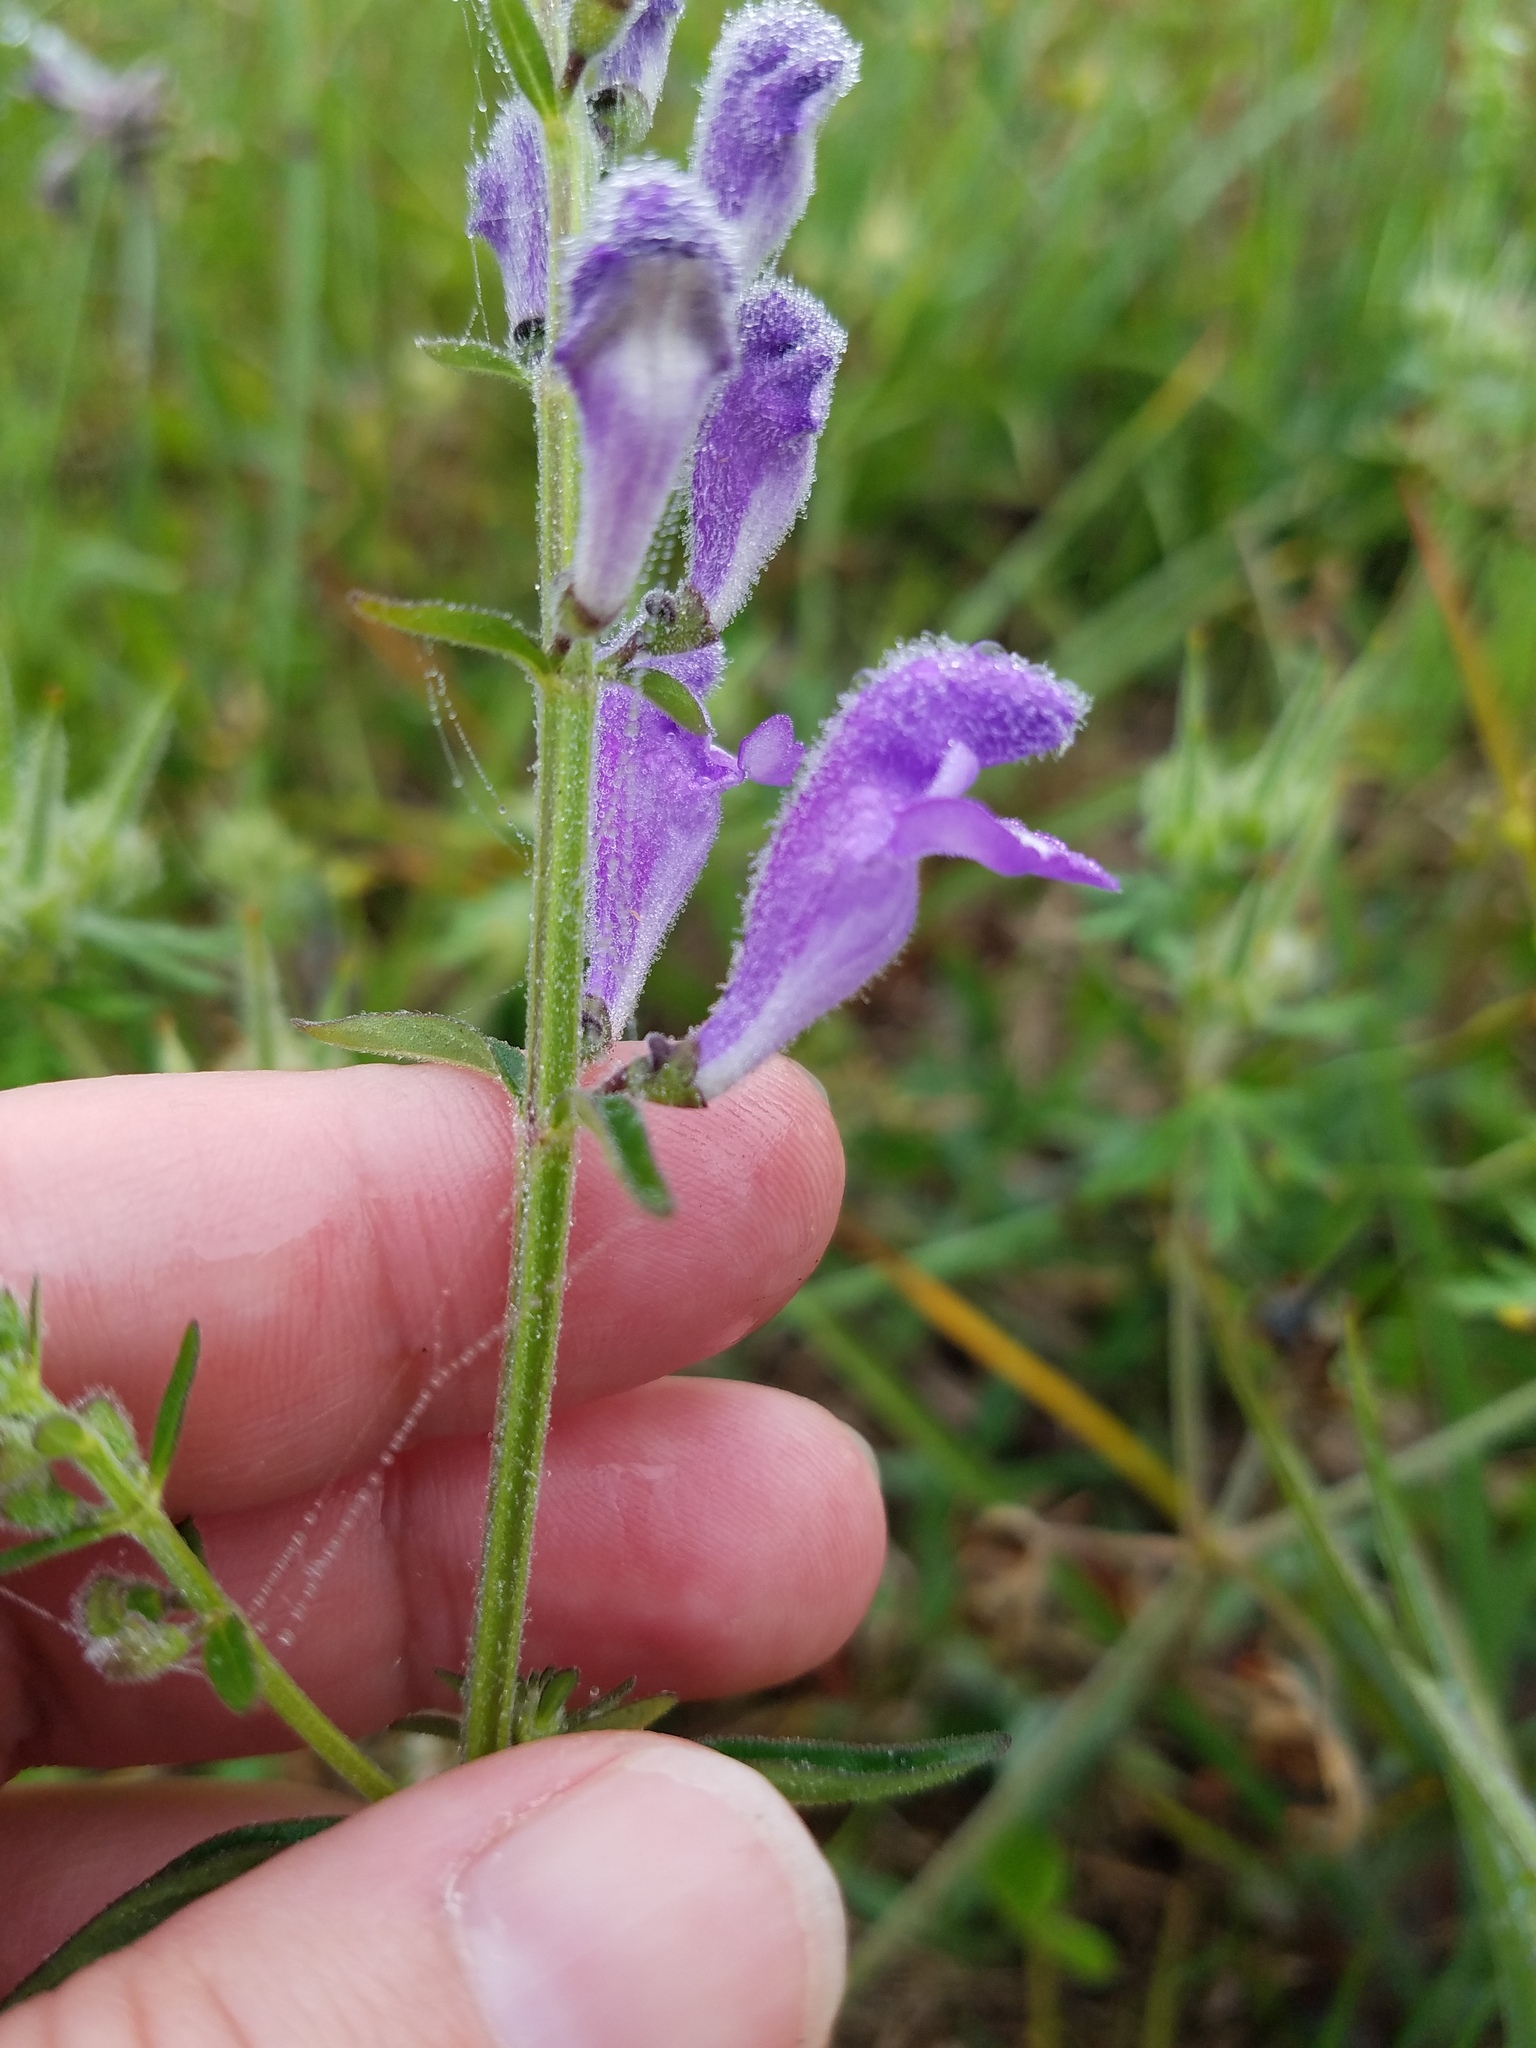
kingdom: Plantae
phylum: Tracheophyta
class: Magnoliopsida
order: Lamiales
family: Lamiaceae
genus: Scutellaria
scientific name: Scutellaria integrifolia
